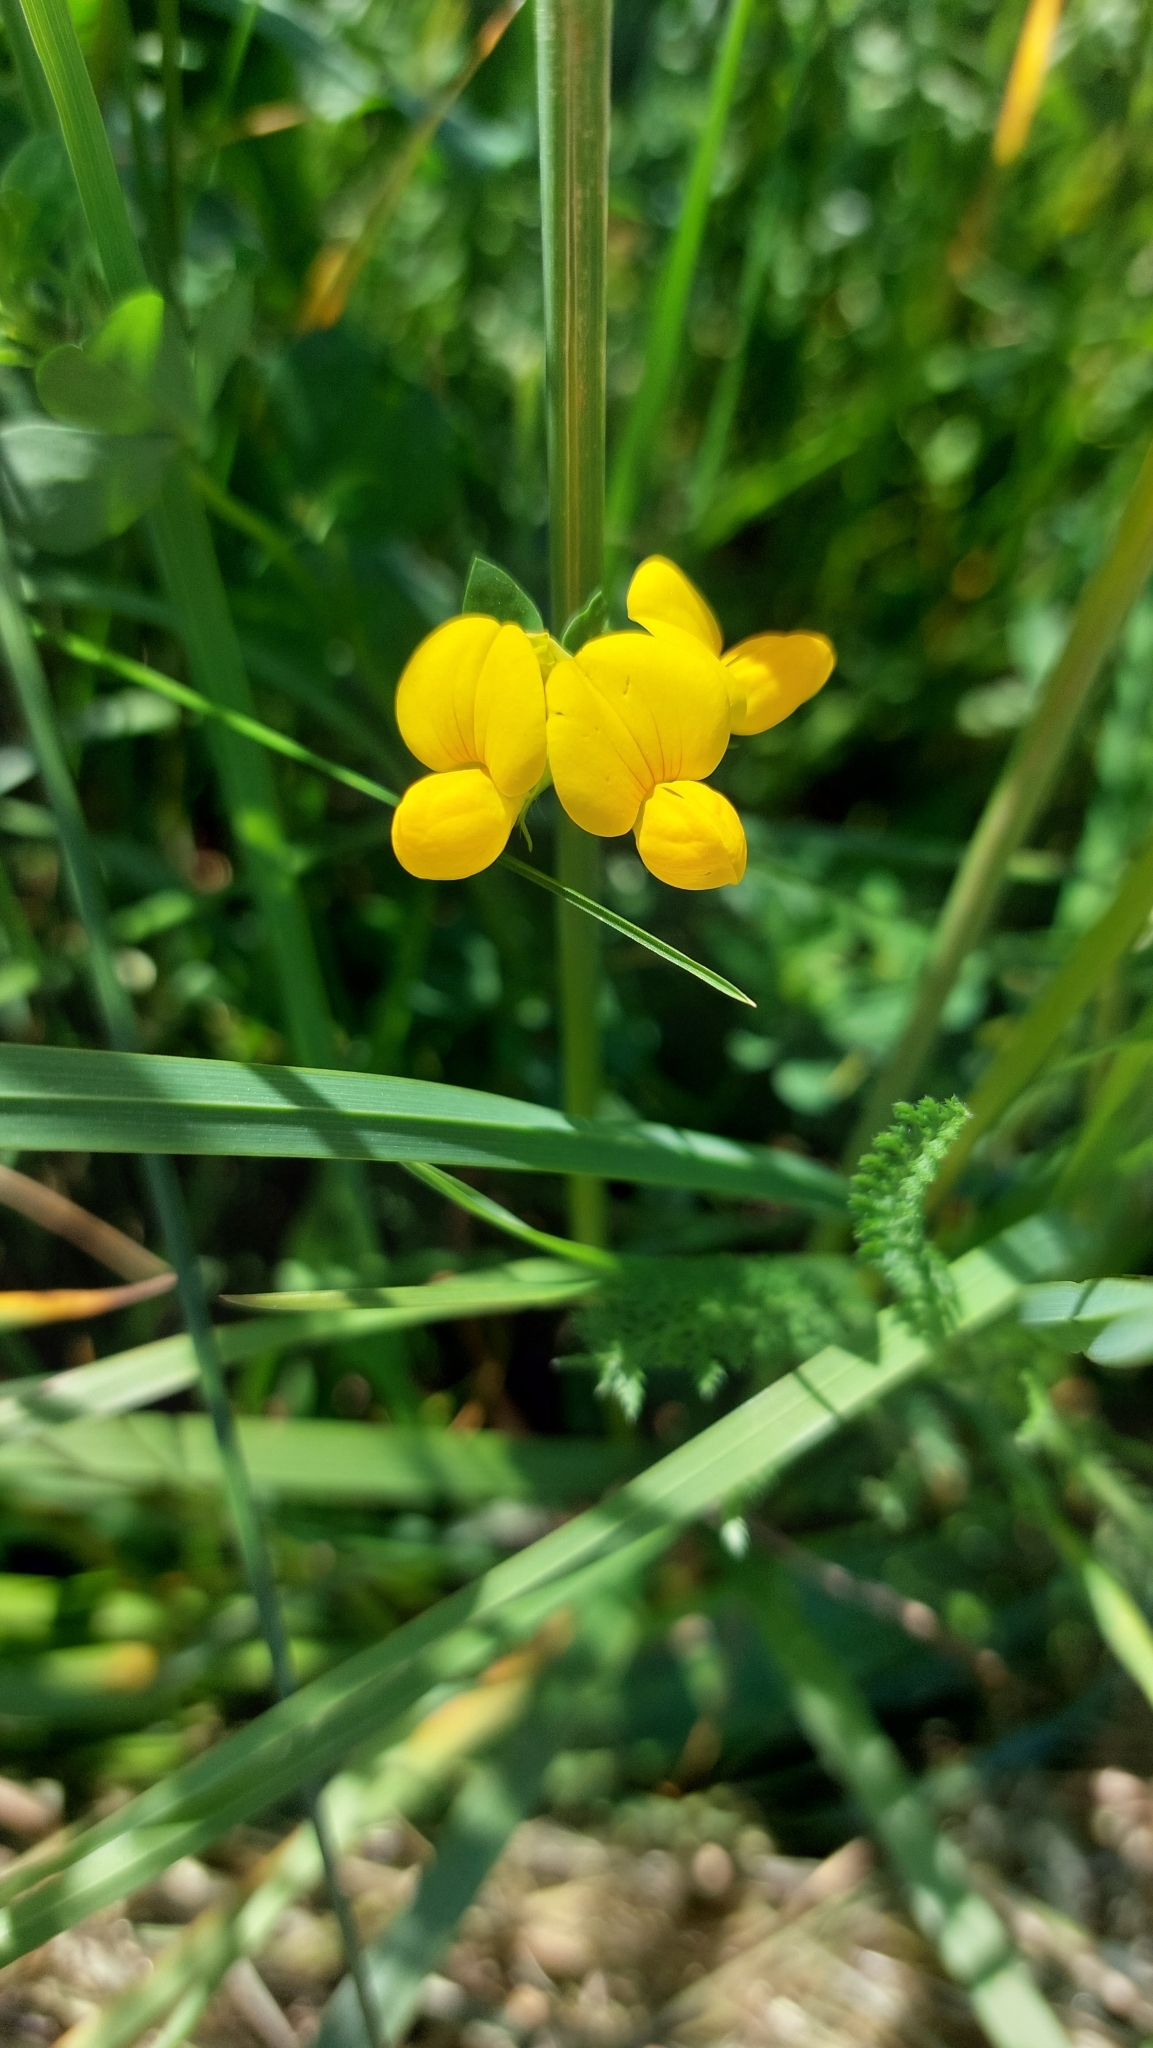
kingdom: Plantae
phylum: Tracheophyta
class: Magnoliopsida
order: Fabales
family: Fabaceae
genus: Lotus
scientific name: Lotus corniculatus
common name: Common bird's-foot-trefoil
